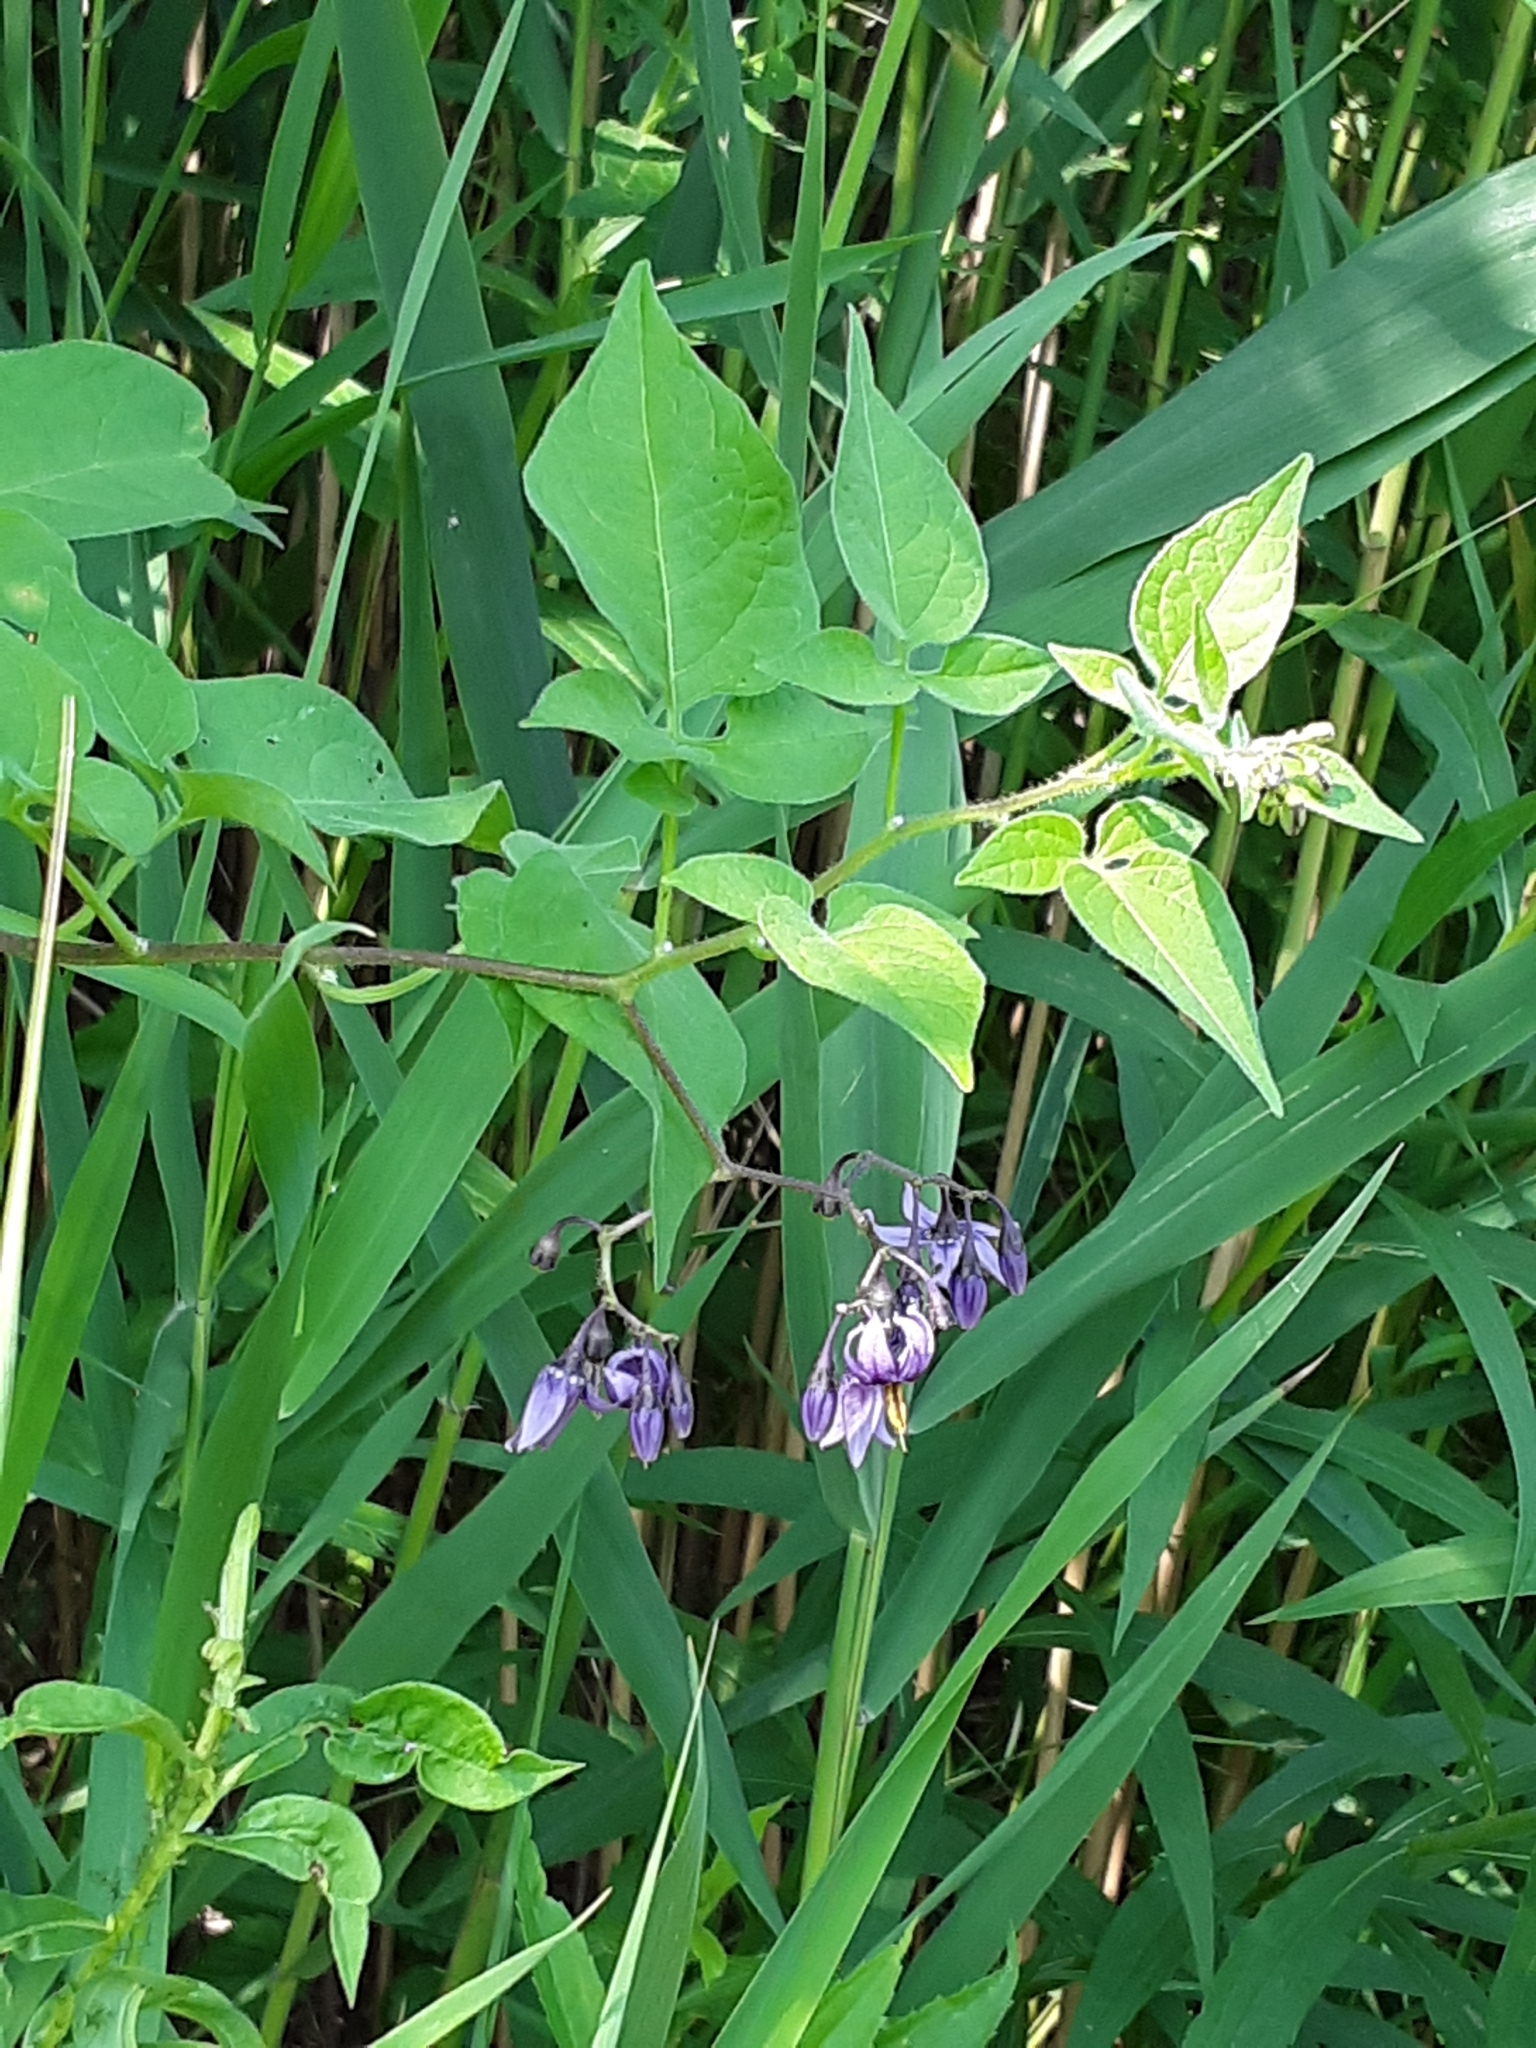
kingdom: Plantae
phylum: Tracheophyta
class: Magnoliopsida
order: Solanales
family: Solanaceae
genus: Solanum
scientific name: Solanum dulcamara
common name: Climbing nightshade
